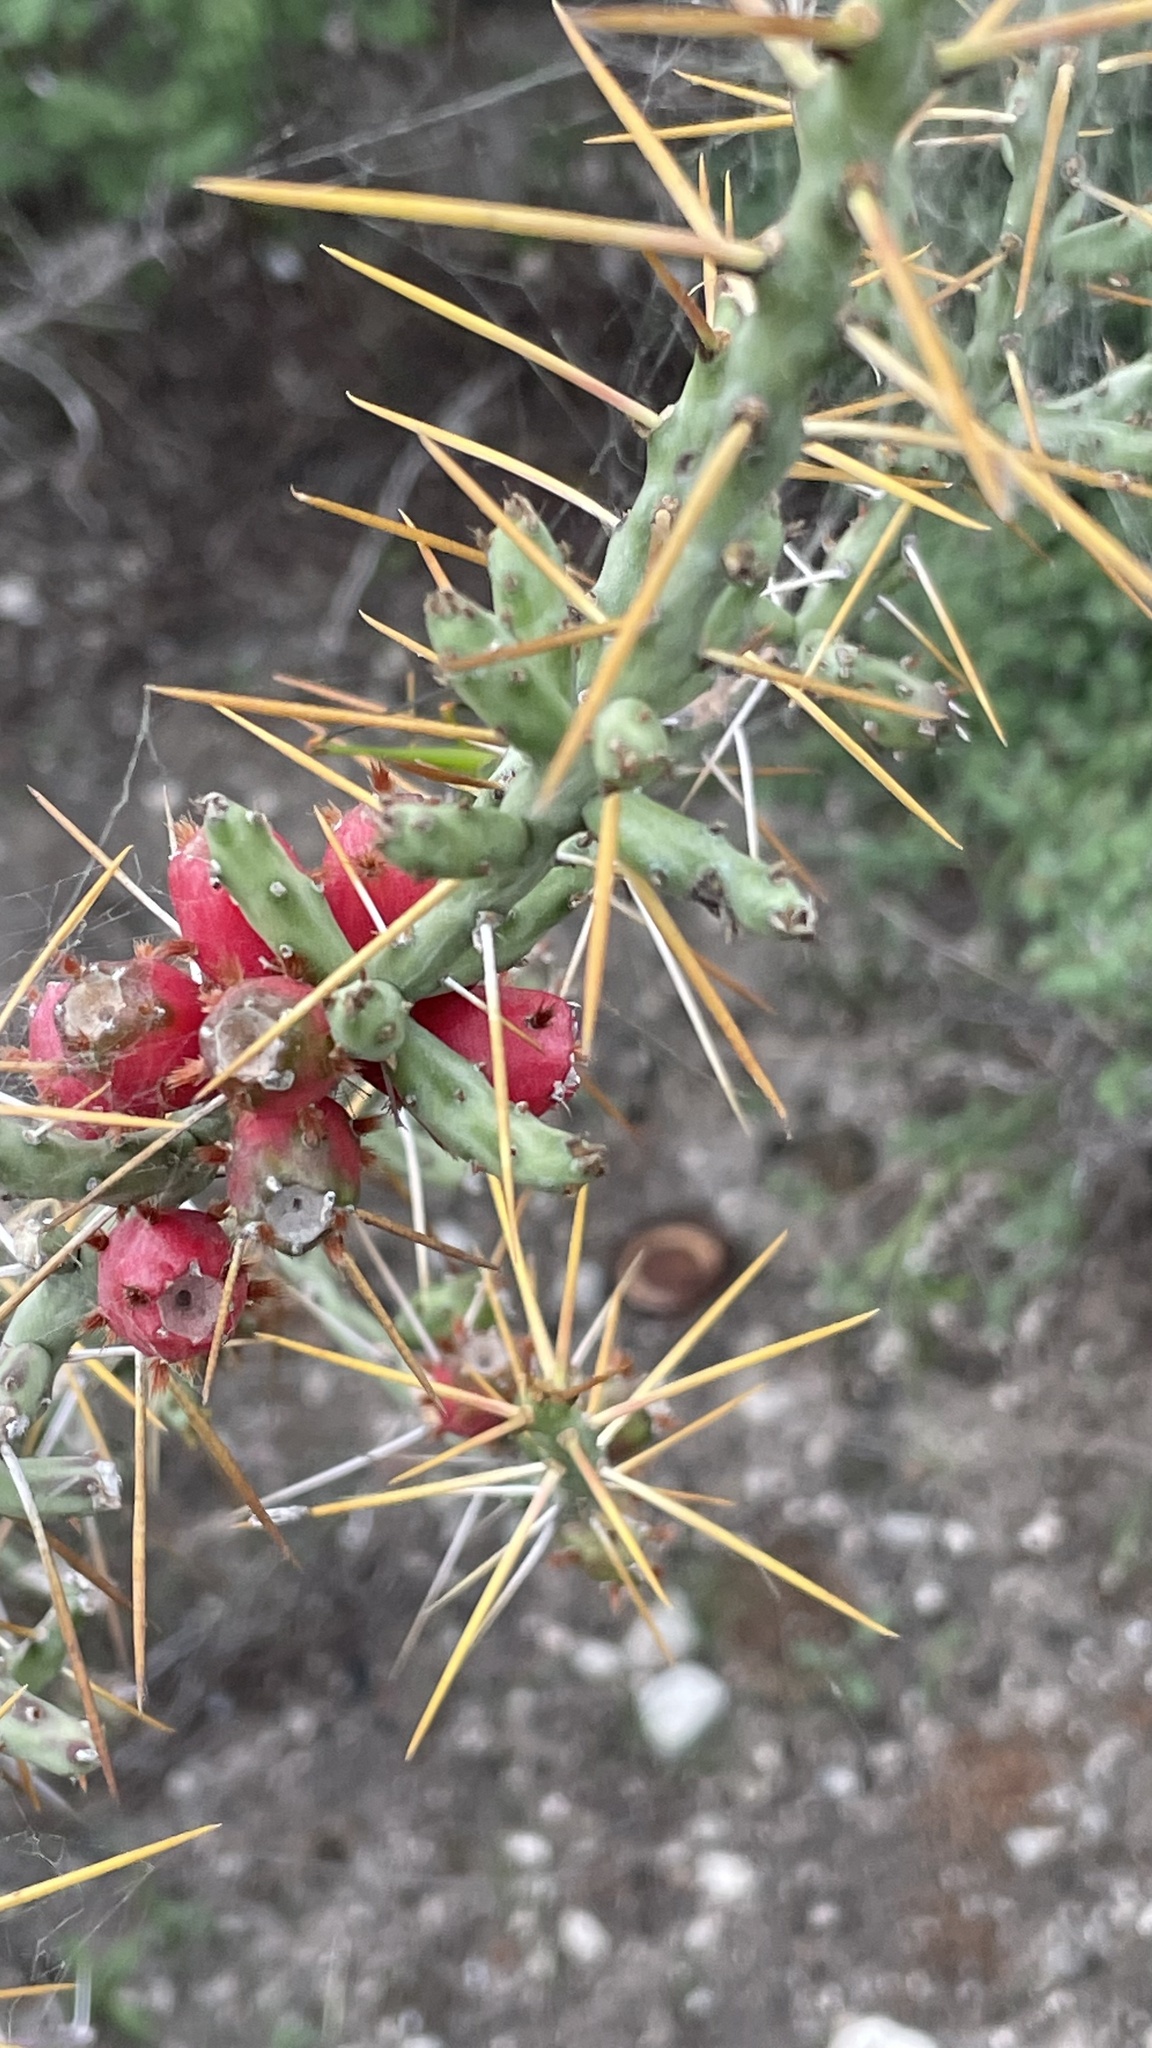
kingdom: Plantae
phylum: Tracheophyta
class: Magnoliopsida
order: Caryophyllales
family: Cactaceae
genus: Cylindropuntia
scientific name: Cylindropuntia leptocaulis
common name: Christmas cactus
